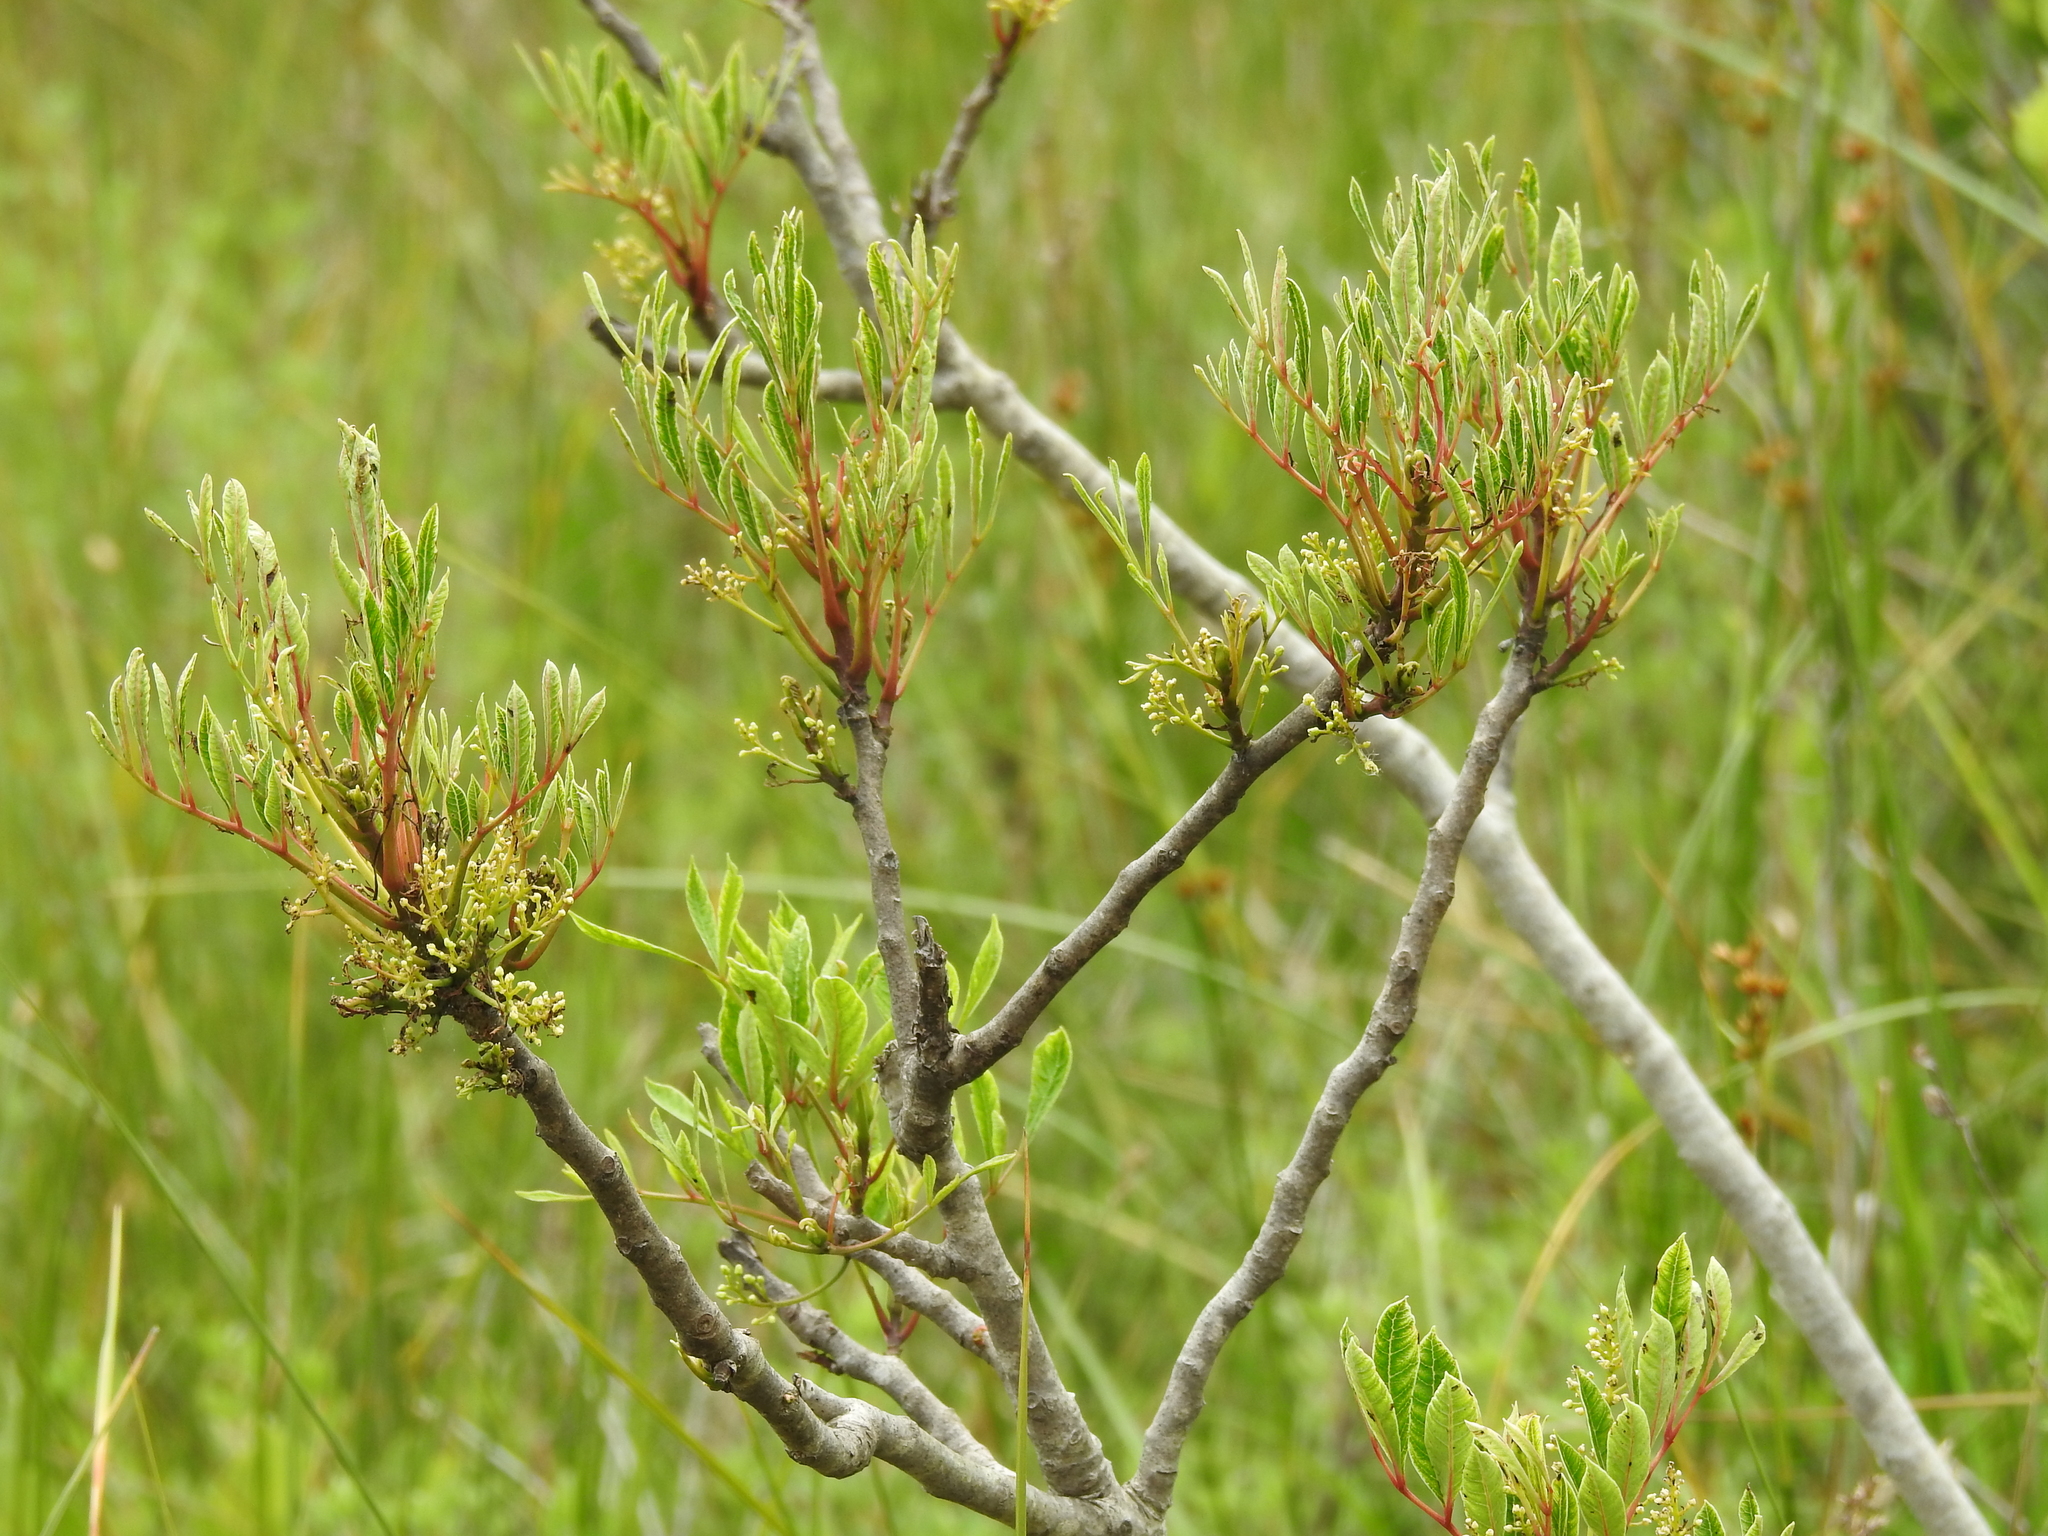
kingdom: Plantae
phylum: Tracheophyta
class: Magnoliopsida
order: Sapindales
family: Anacardiaceae
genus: Toxicodendron
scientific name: Toxicodendron vernix
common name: Poison sumac
